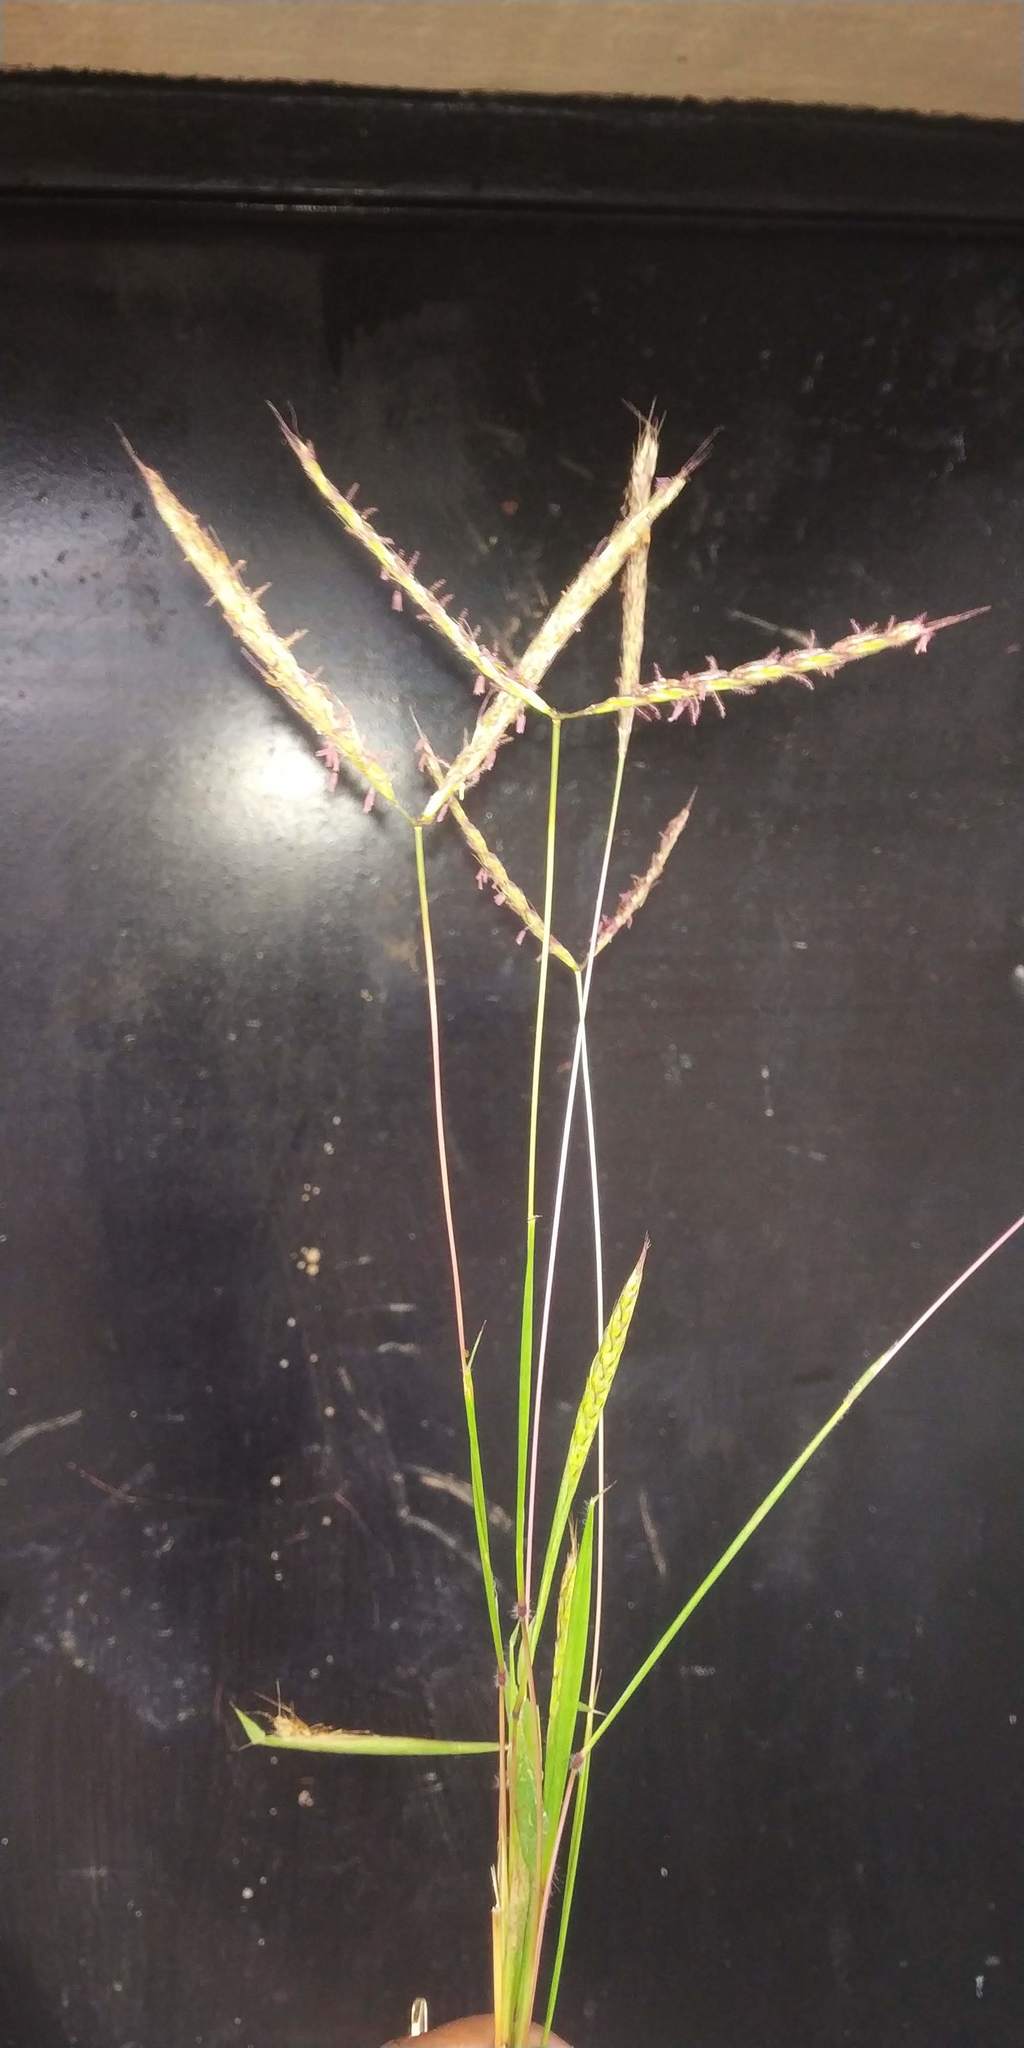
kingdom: Plantae
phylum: Tracheophyta
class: Liliopsida
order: Poales
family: Poaceae
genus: Ischaemum
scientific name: Ischaemum ciliare
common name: Grass
